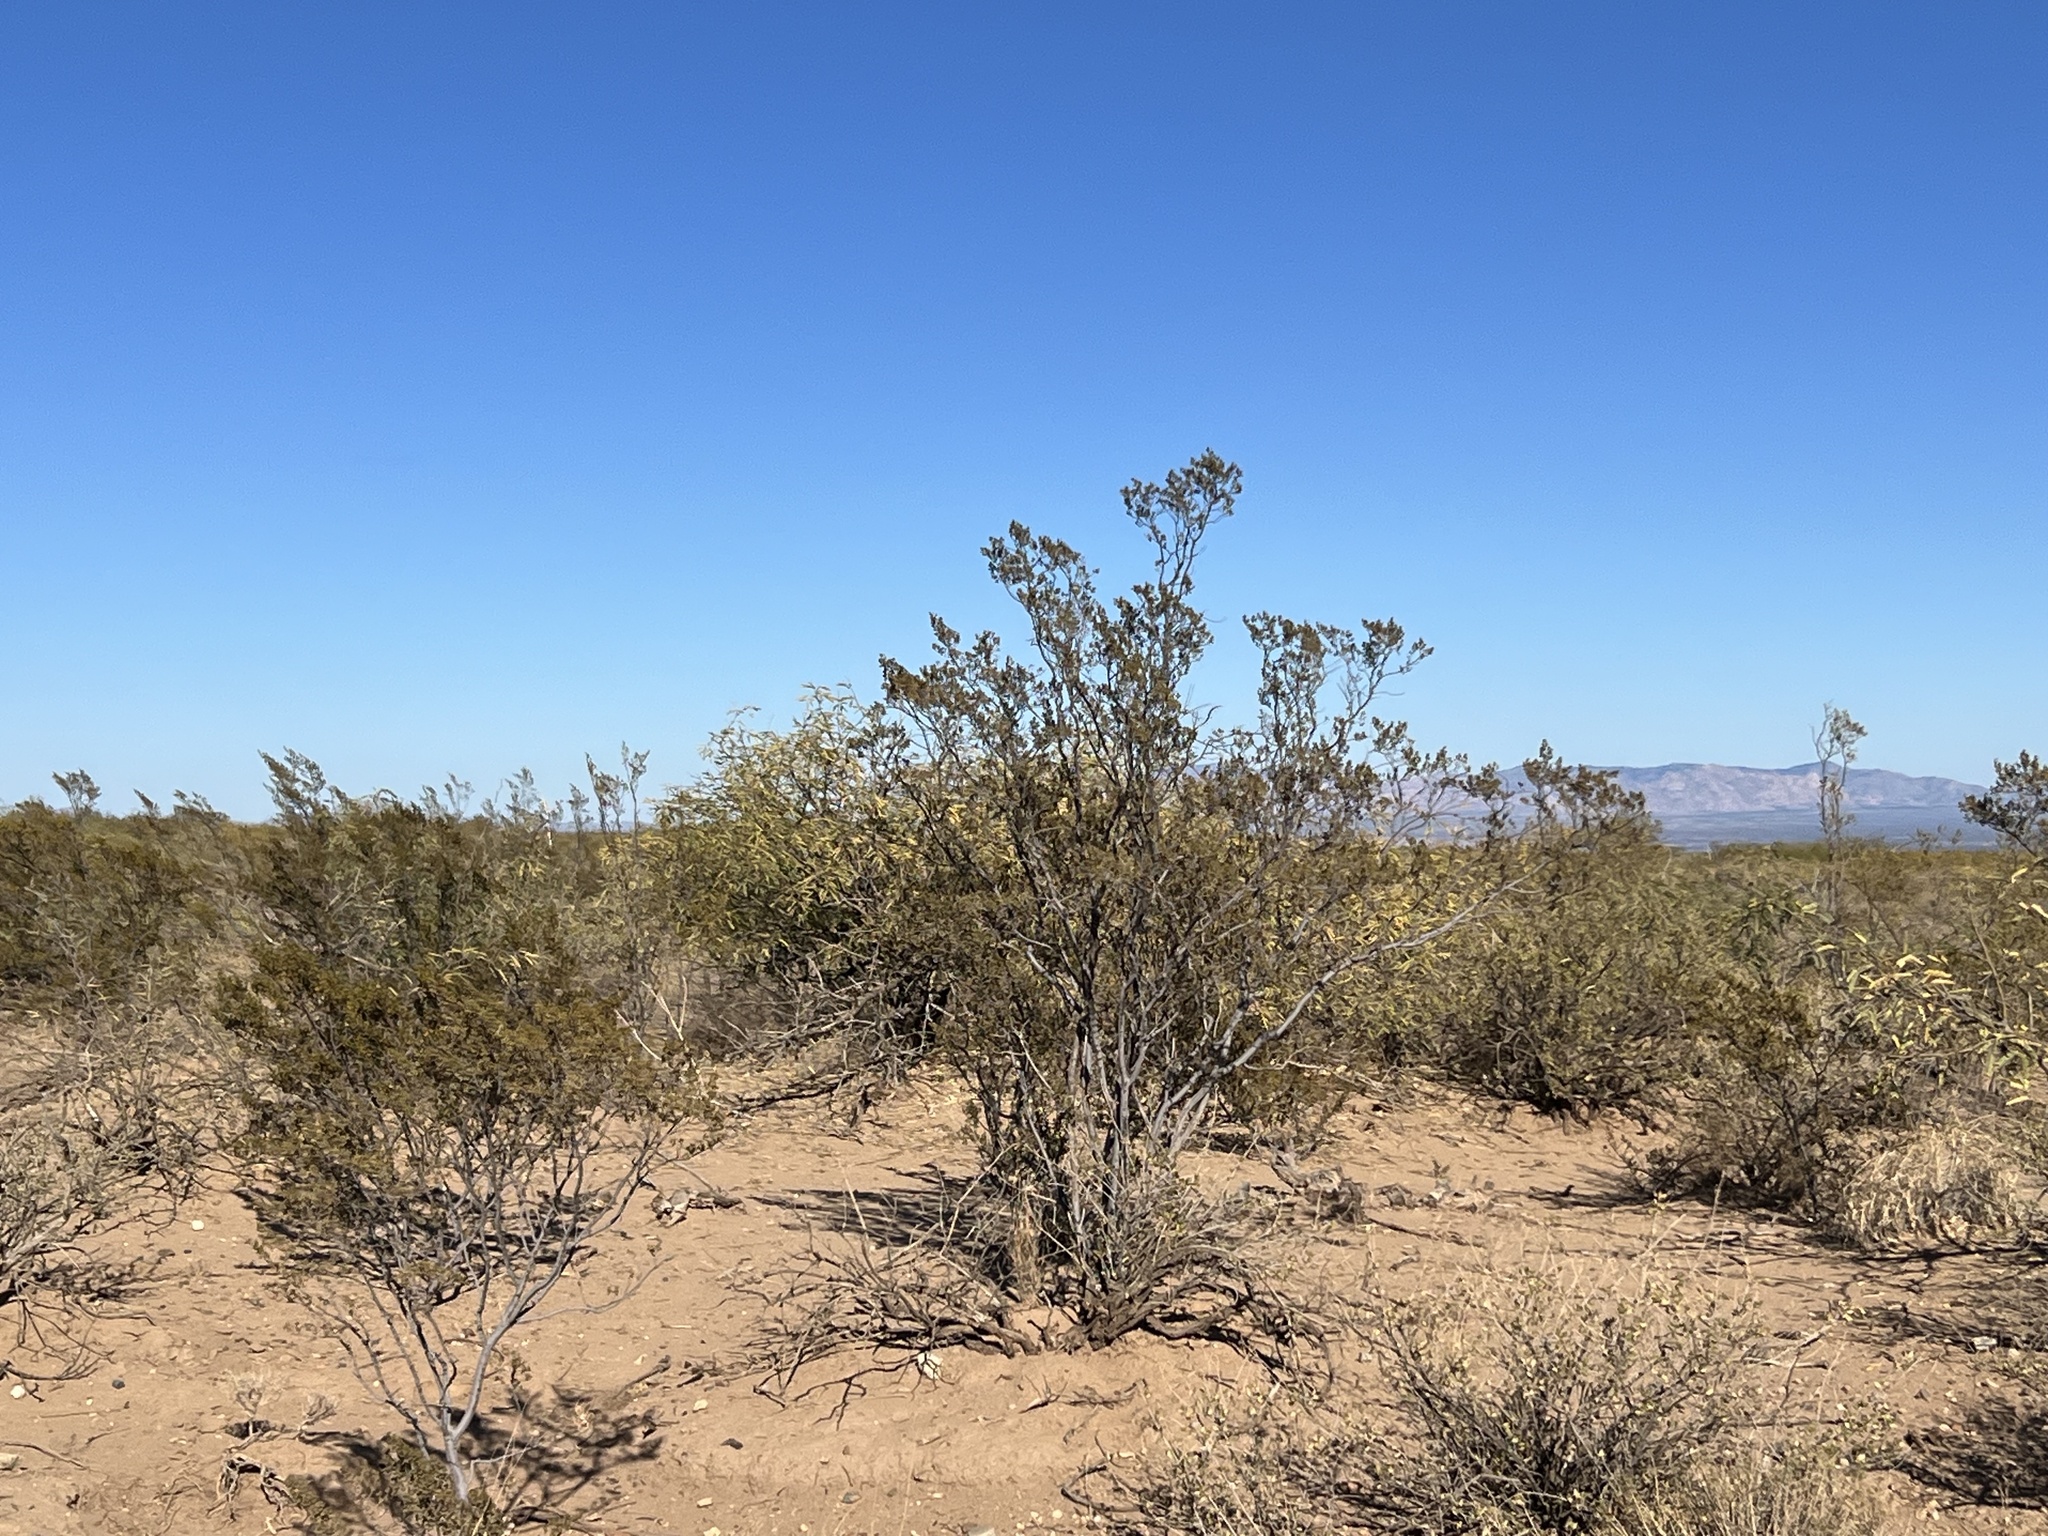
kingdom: Plantae
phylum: Tracheophyta
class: Magnoliopsida
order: Zygophyllales
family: Zygophyllaceae
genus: Larrea
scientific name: Larrea tridentata
